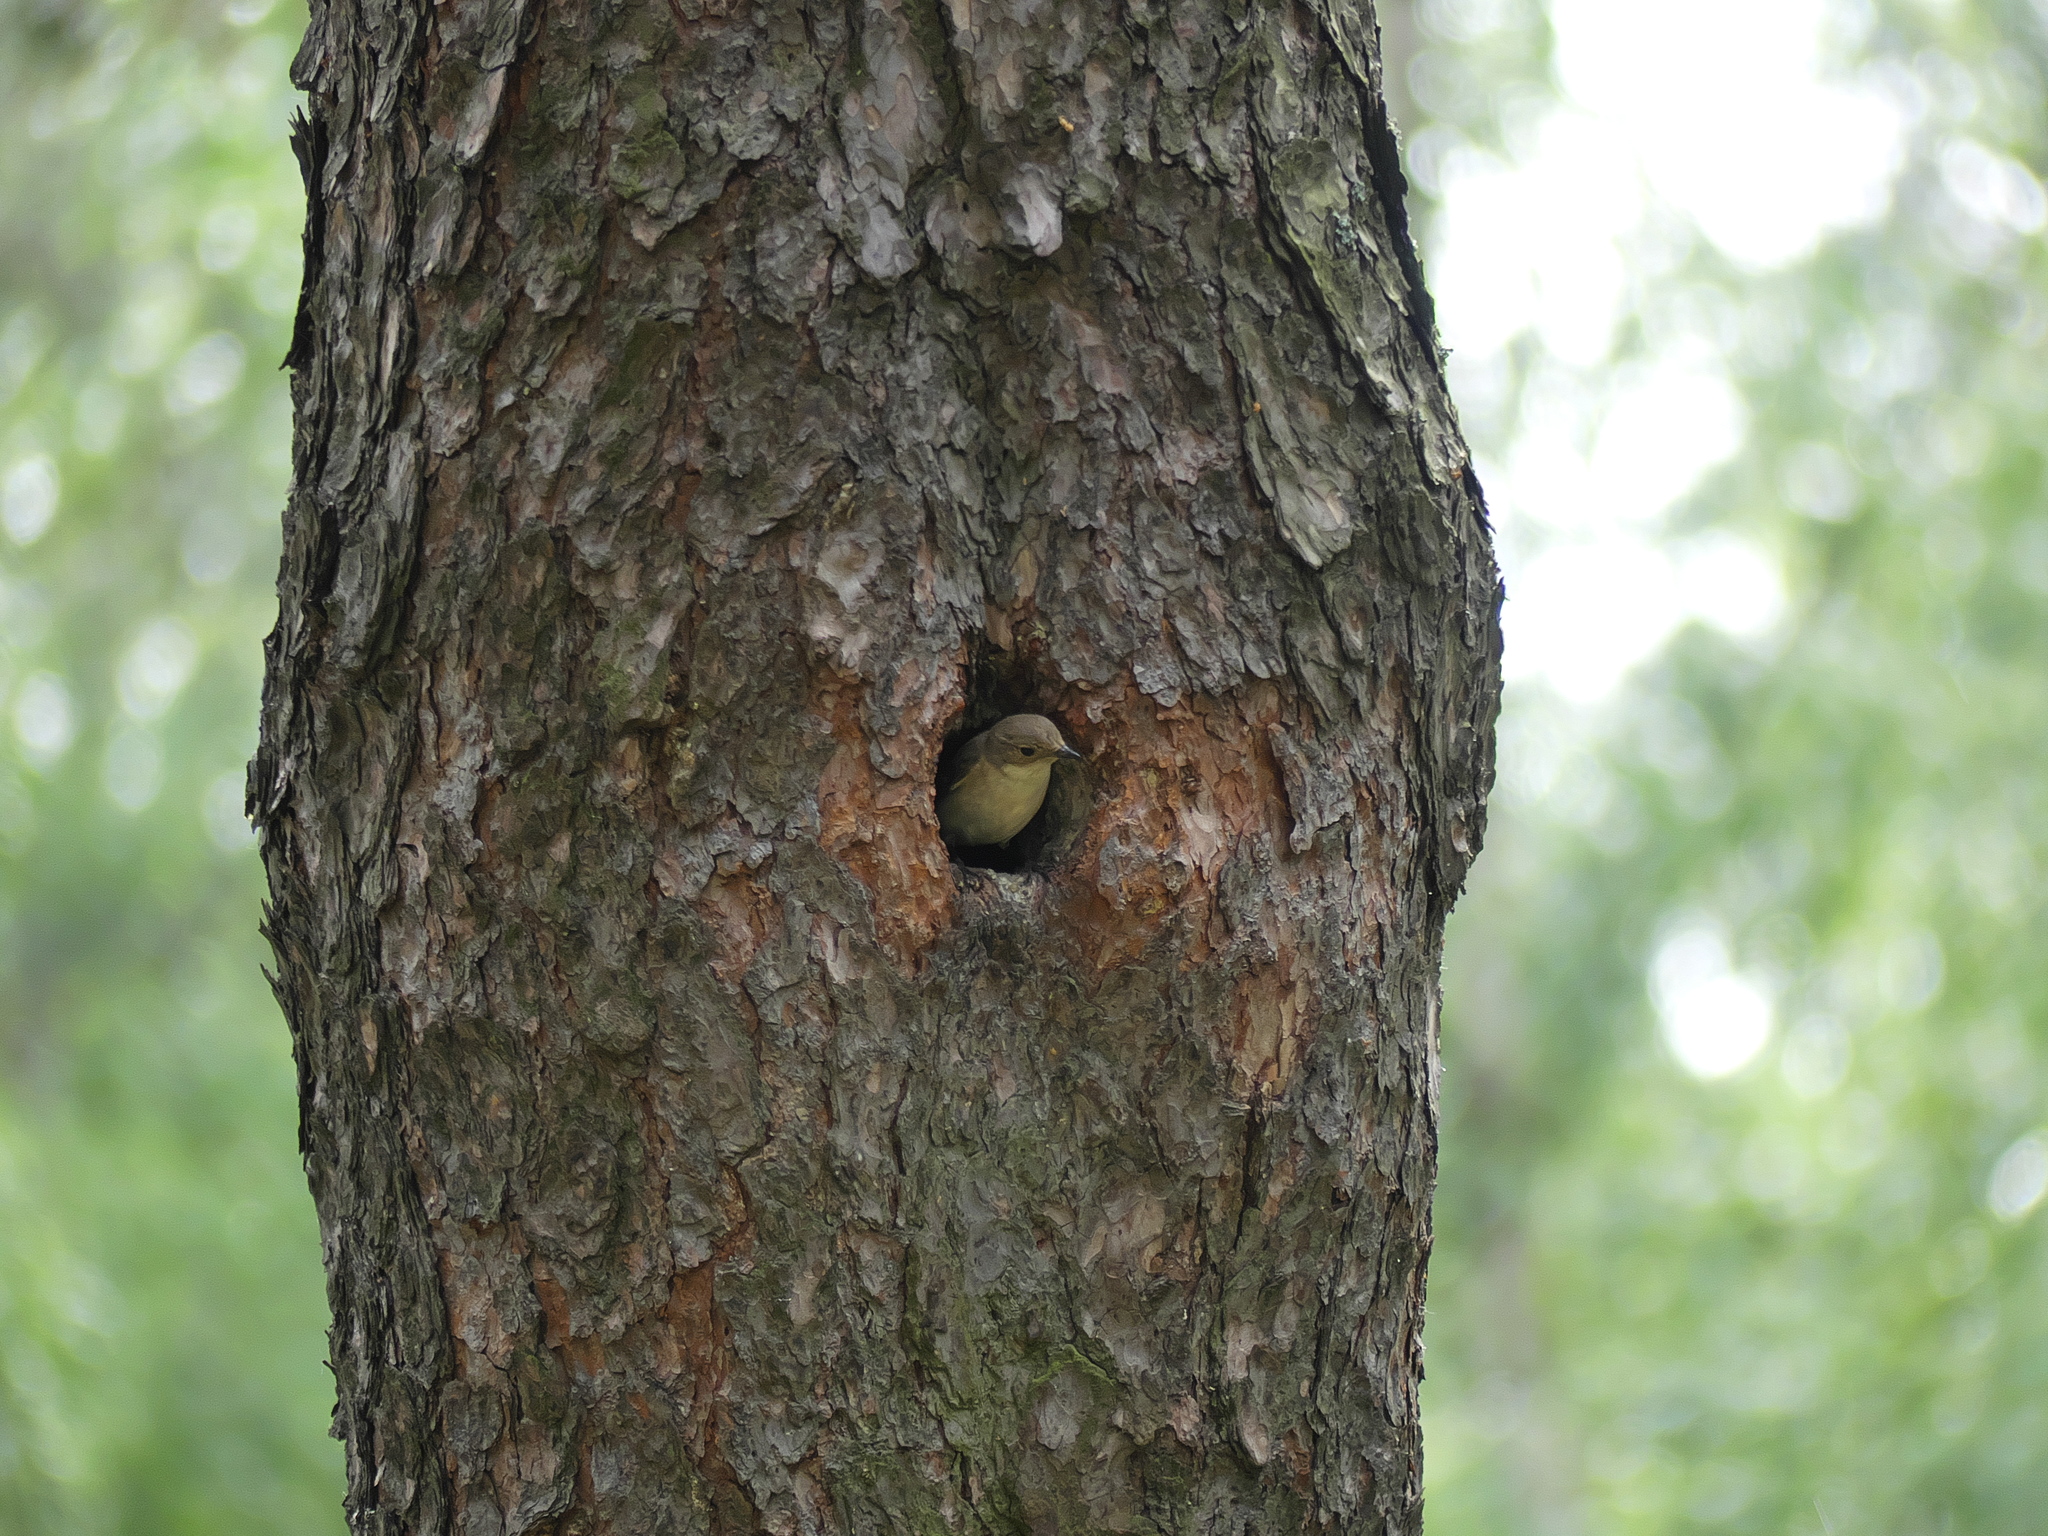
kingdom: Animalia
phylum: Chordata
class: Aves
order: Passeriformes
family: Muscicapidae
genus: Ficedula
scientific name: Ficedula hypoleuca
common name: European pied flycatcher
